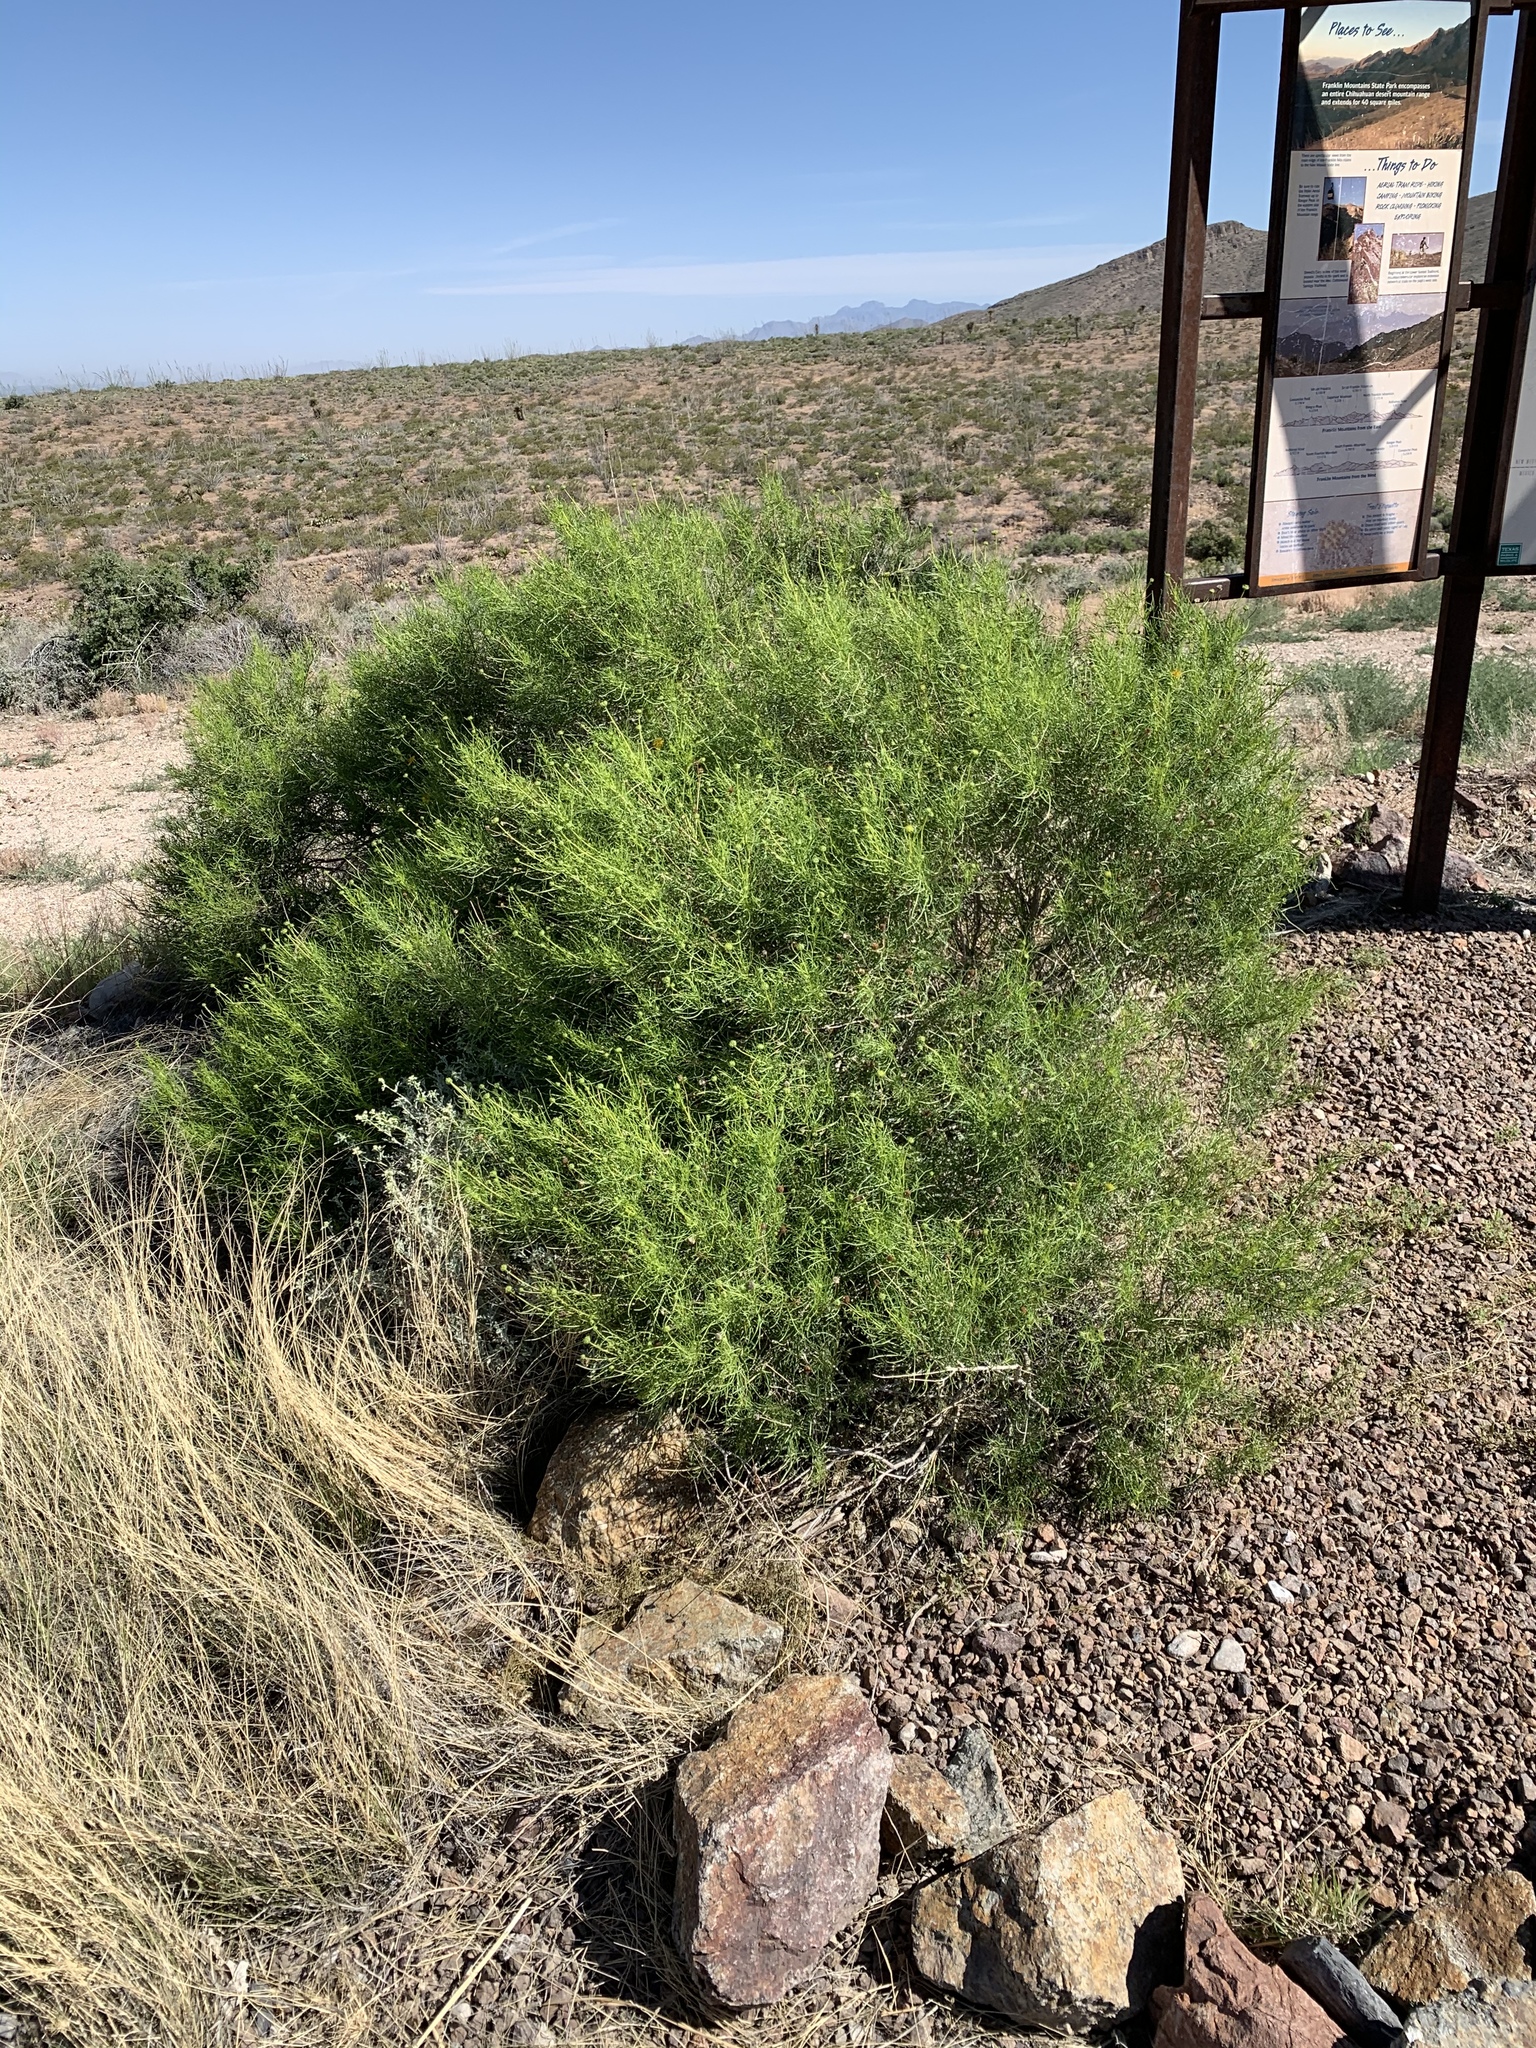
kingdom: Plantae
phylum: Tracheophyta
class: Magnoliopsida
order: Asterales
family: Asteraceae
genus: Sidneya
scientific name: Sidneya tenuifolia
